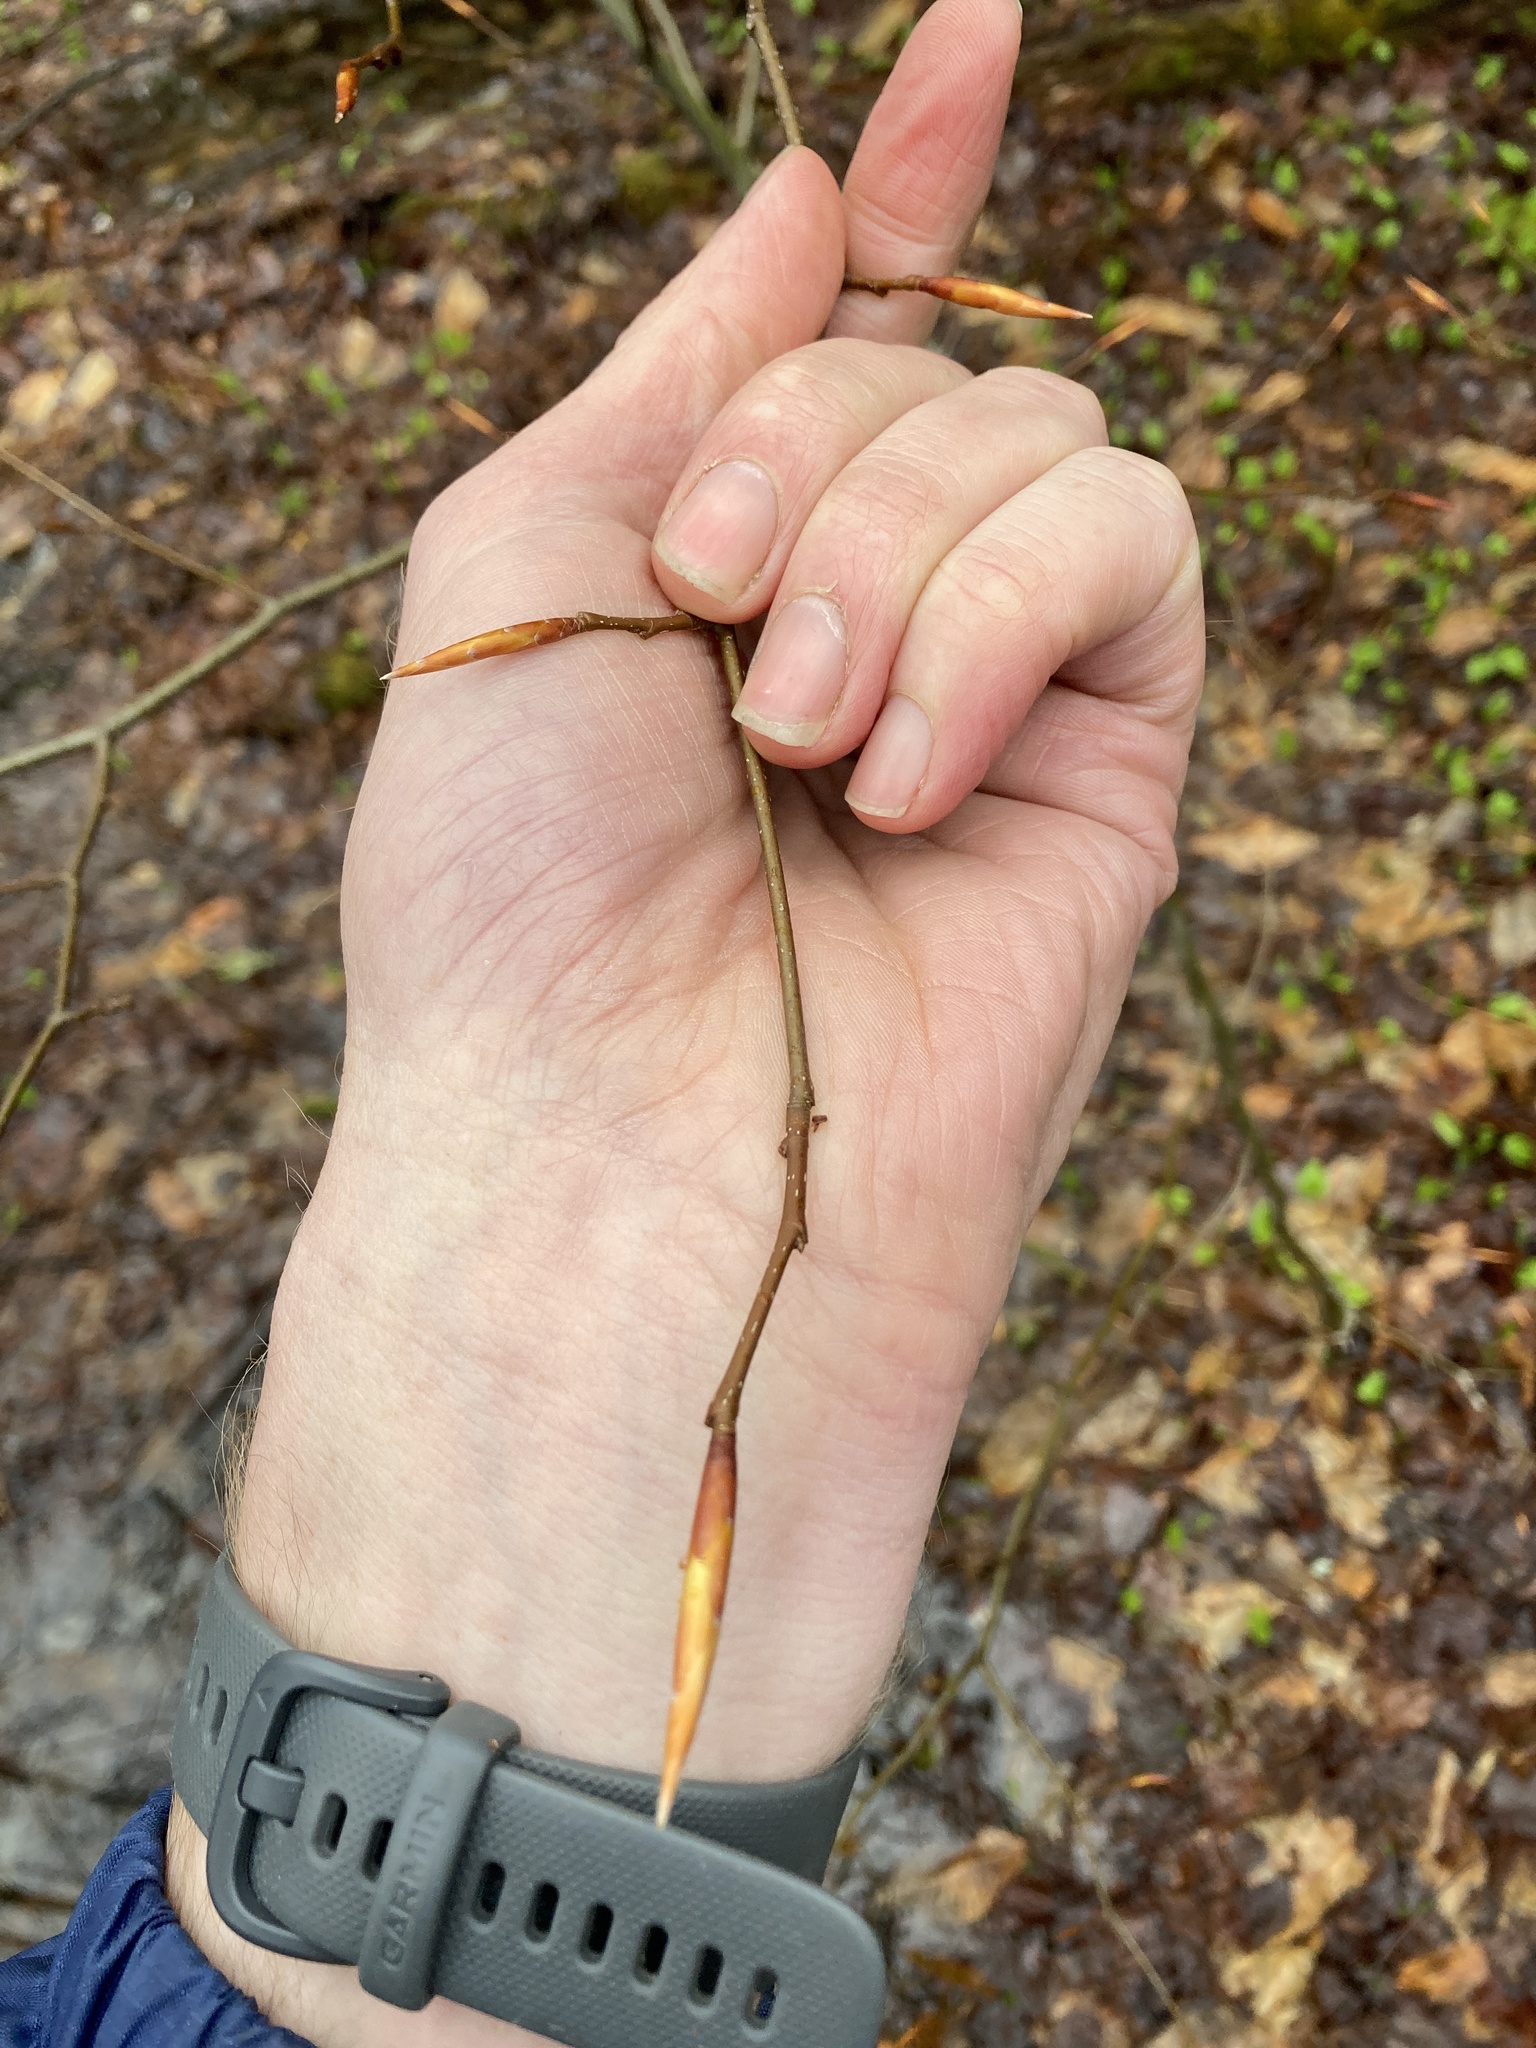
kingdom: Plantae
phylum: Tracheophyta
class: Magnoliopsida
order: Fagales
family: Fagaceae
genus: Fagus
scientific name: Fagus grandifolia
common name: American beech
